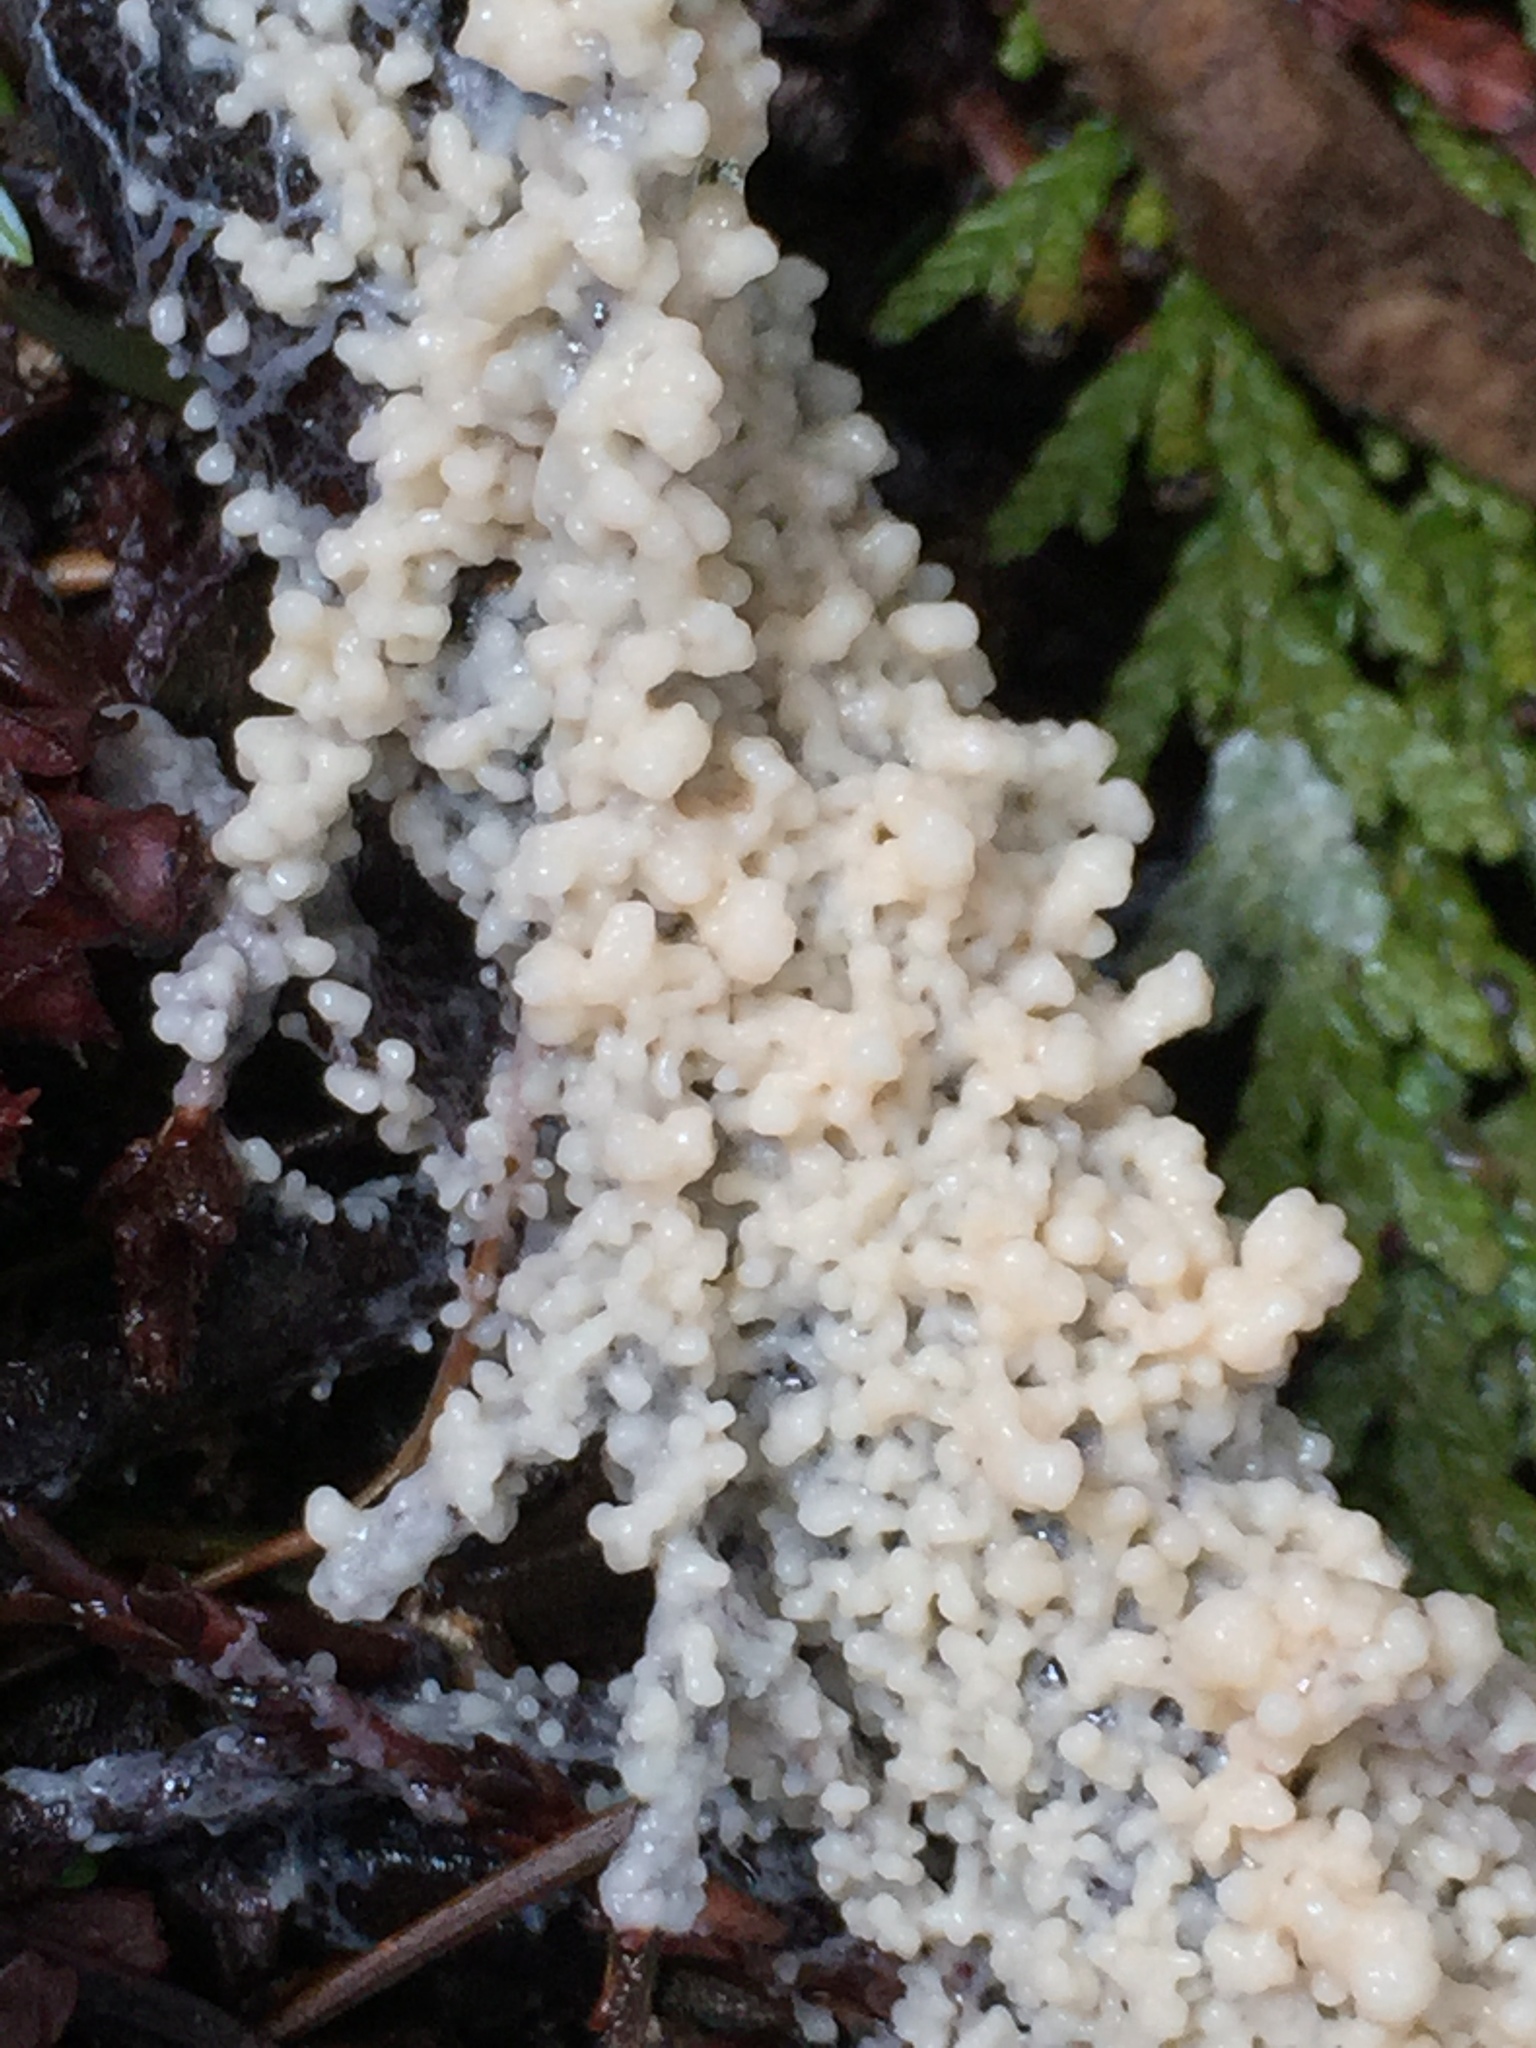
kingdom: Protozoa
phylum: Mycetozoa
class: Myxomycetes
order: Physarales
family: Physaraceae
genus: Didymium
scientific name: Didymium
